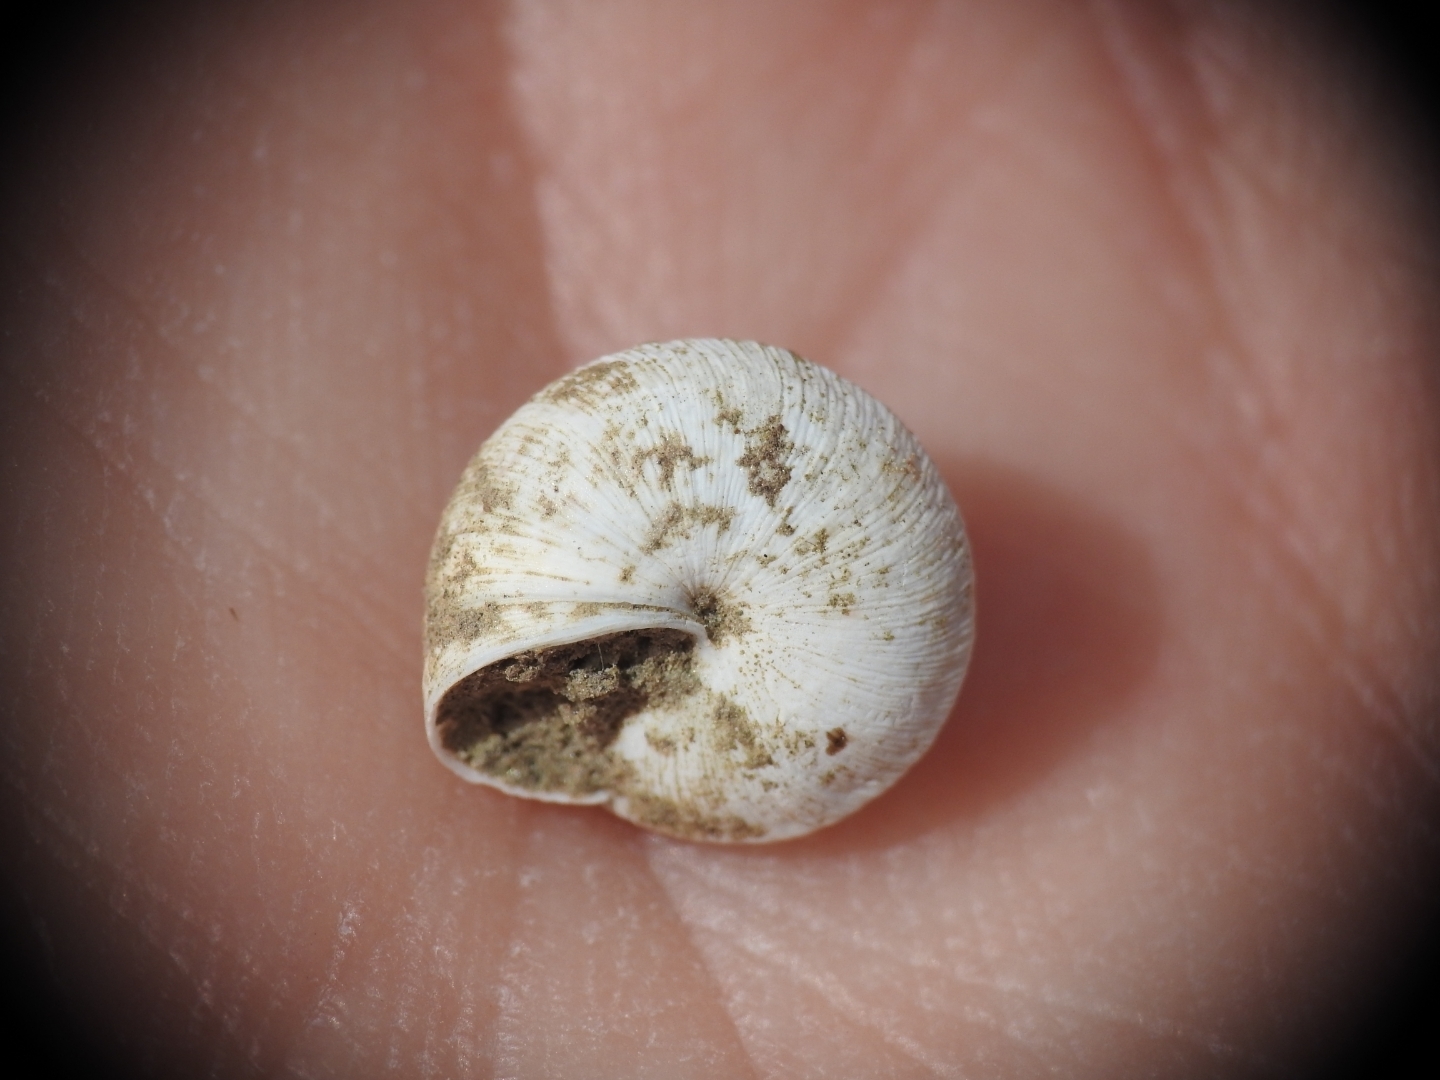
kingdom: Animalia
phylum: Mollusca
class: Gastropoda
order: Stylommatophora
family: Geomitridae
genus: Trochoidea
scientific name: Trochoidea pyramidata
